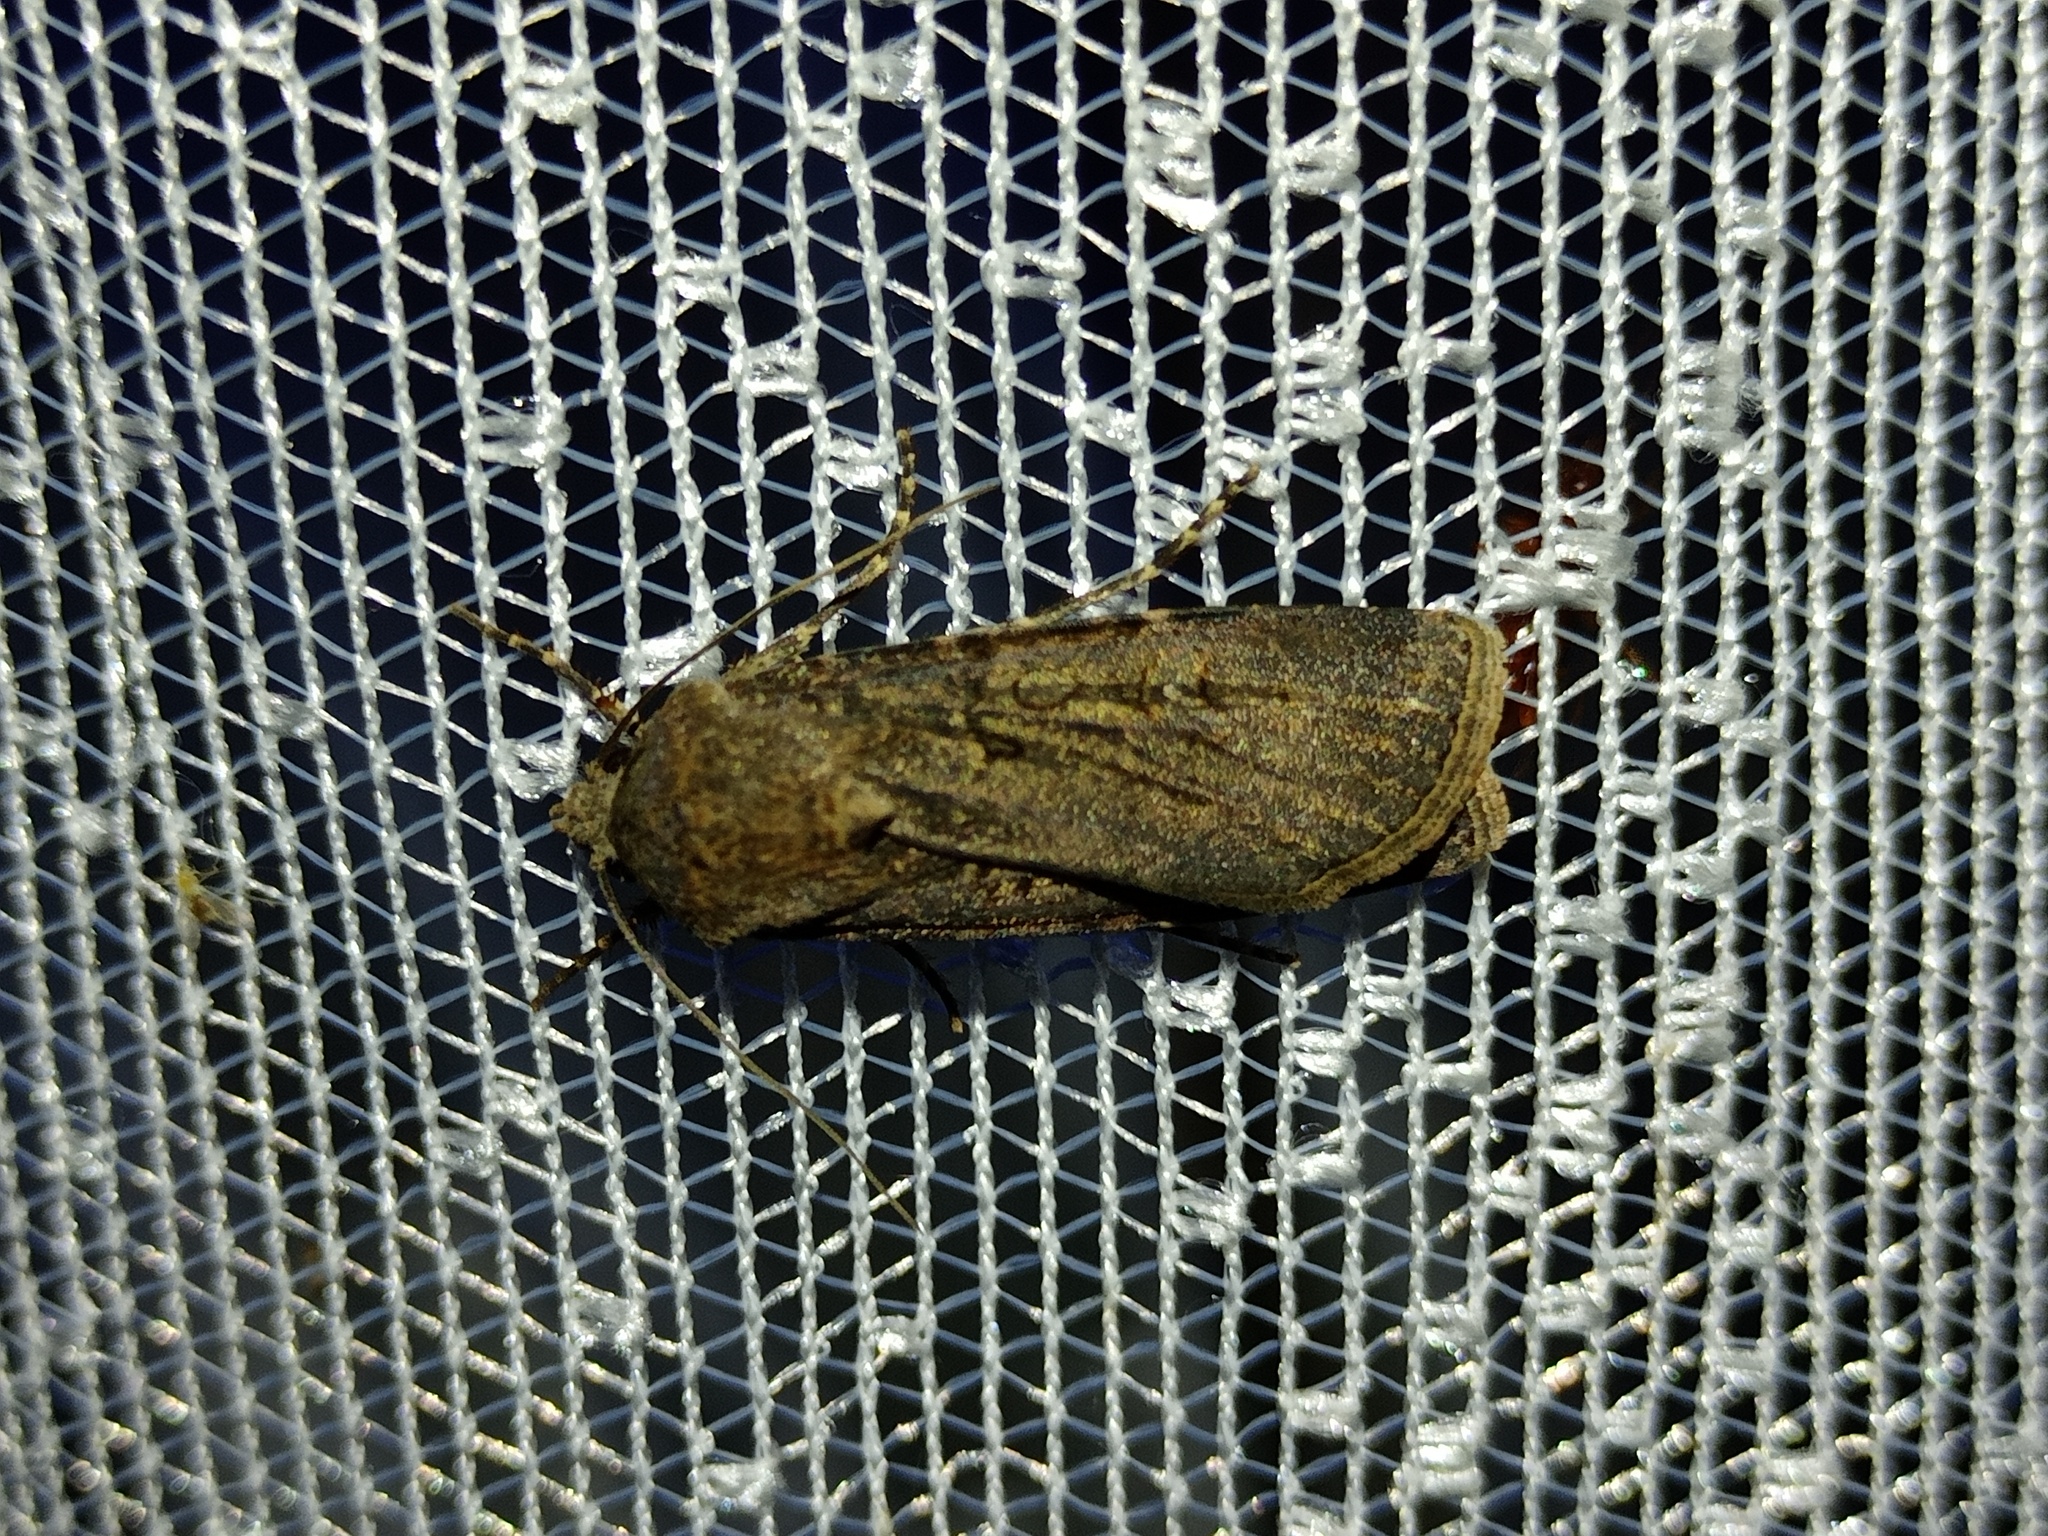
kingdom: Animalia
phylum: Arthropoda
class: Insecta
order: Lepidoptera
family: Noctuidae
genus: Agrotis
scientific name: Agrotis segetum
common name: Turnip moth
